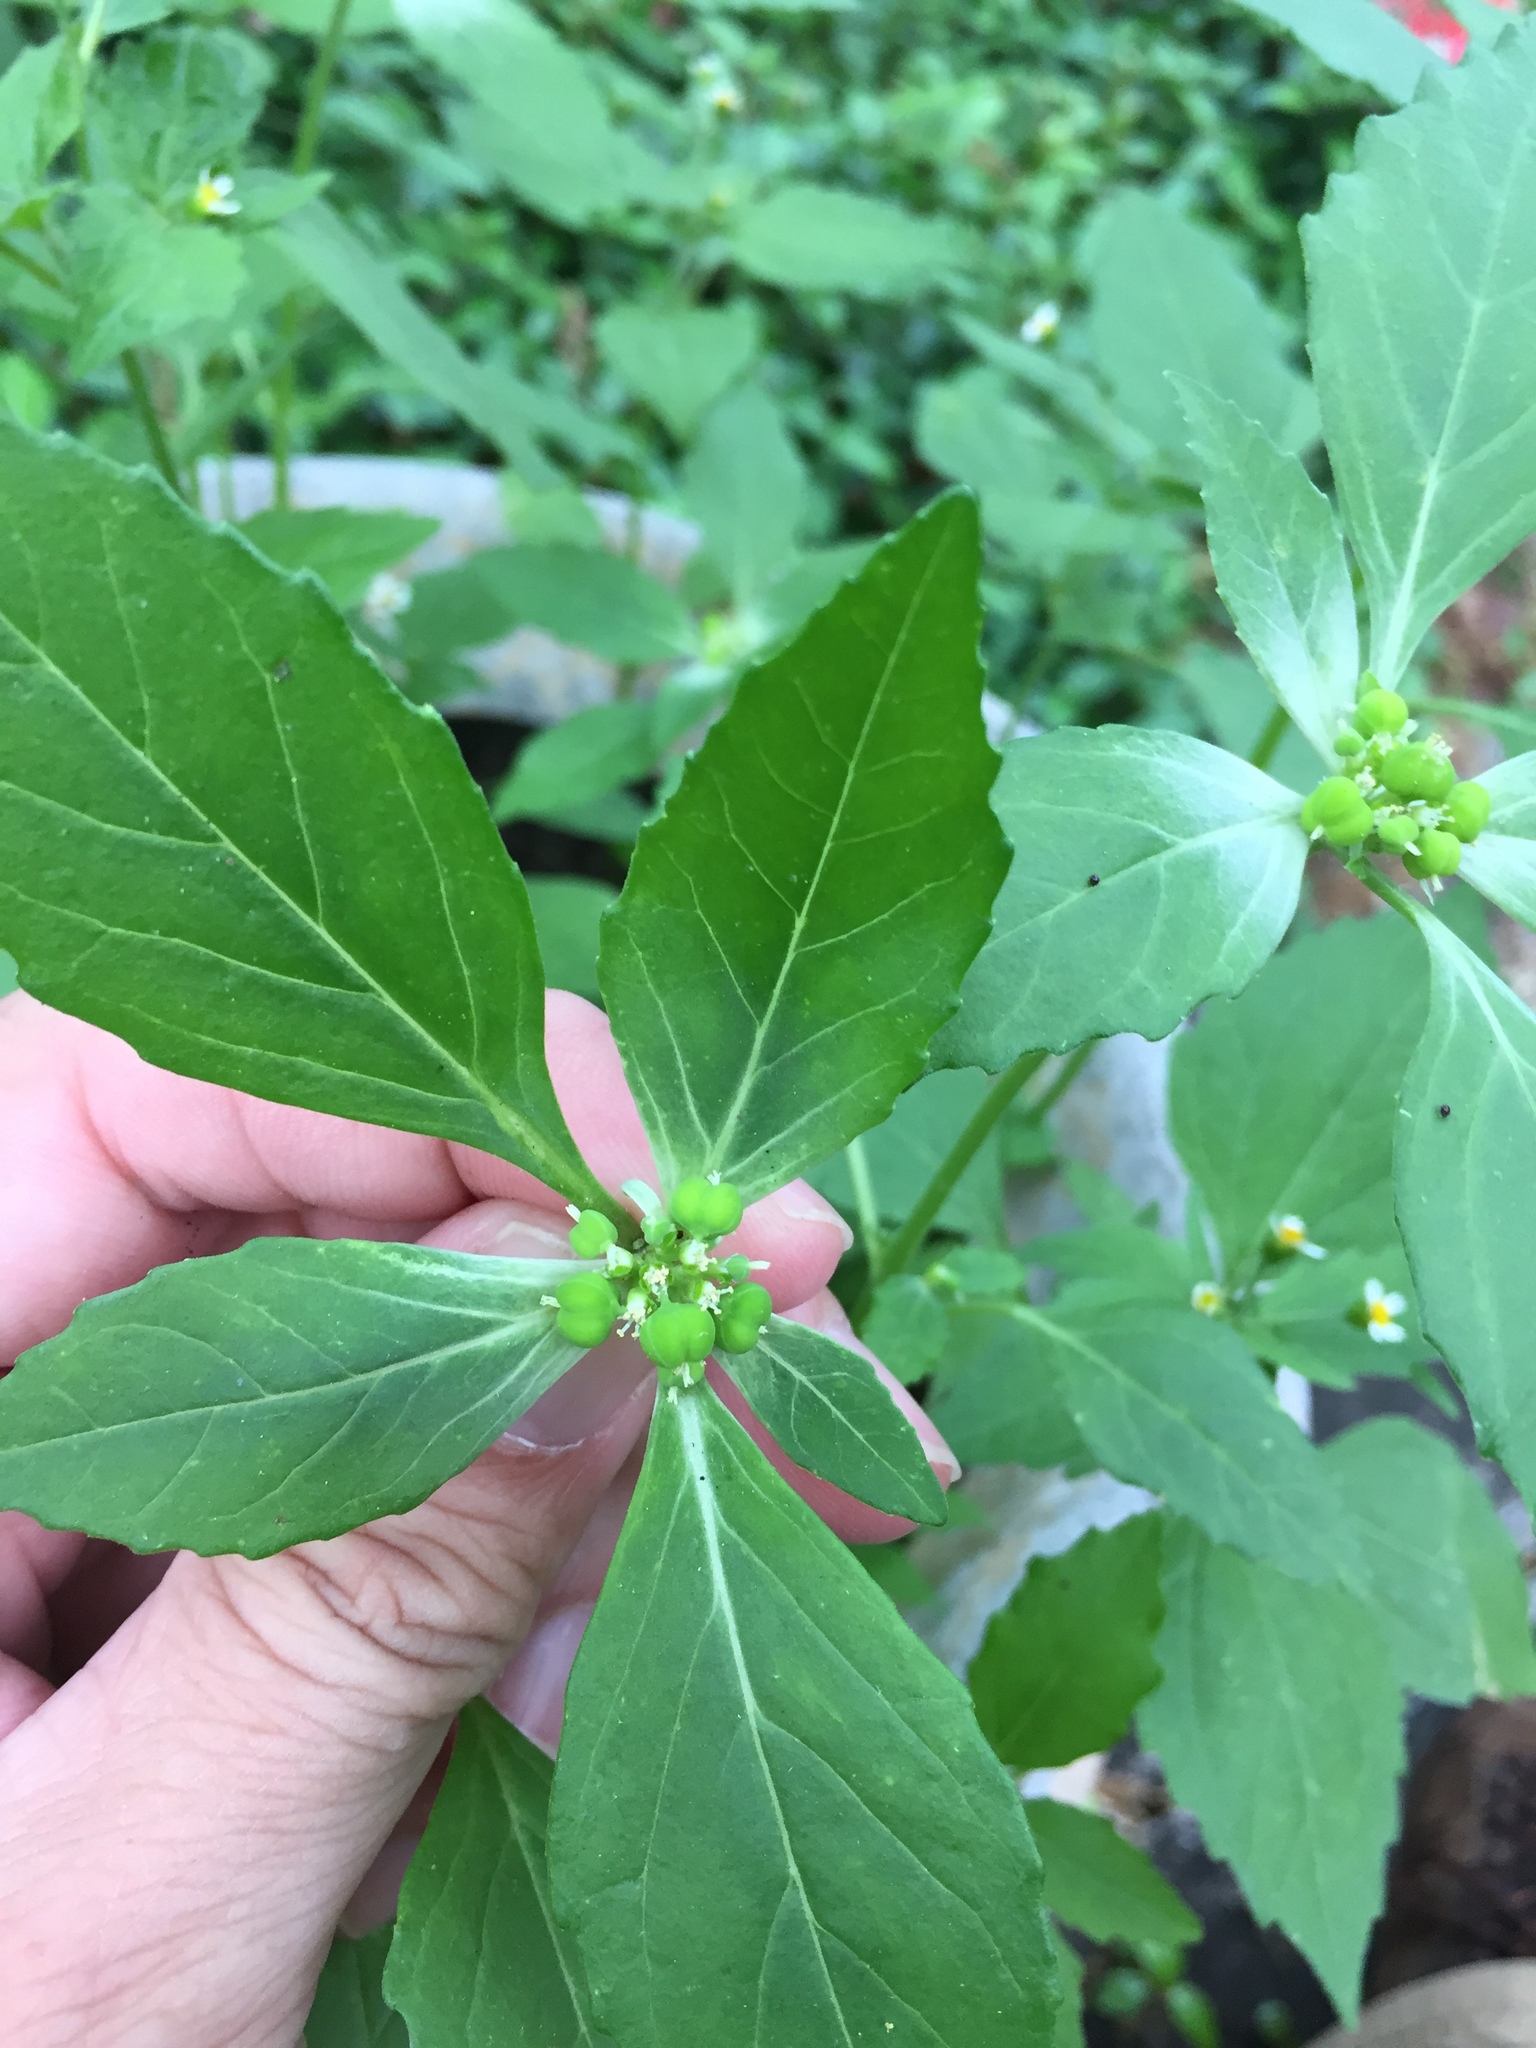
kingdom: Plantae
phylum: Tracheophyta
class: Magnoliopsida
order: Malpighiales
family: Euphorbiaceae
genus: Euphorbia
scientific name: Euphorbia dentata
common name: Dentate spurge
